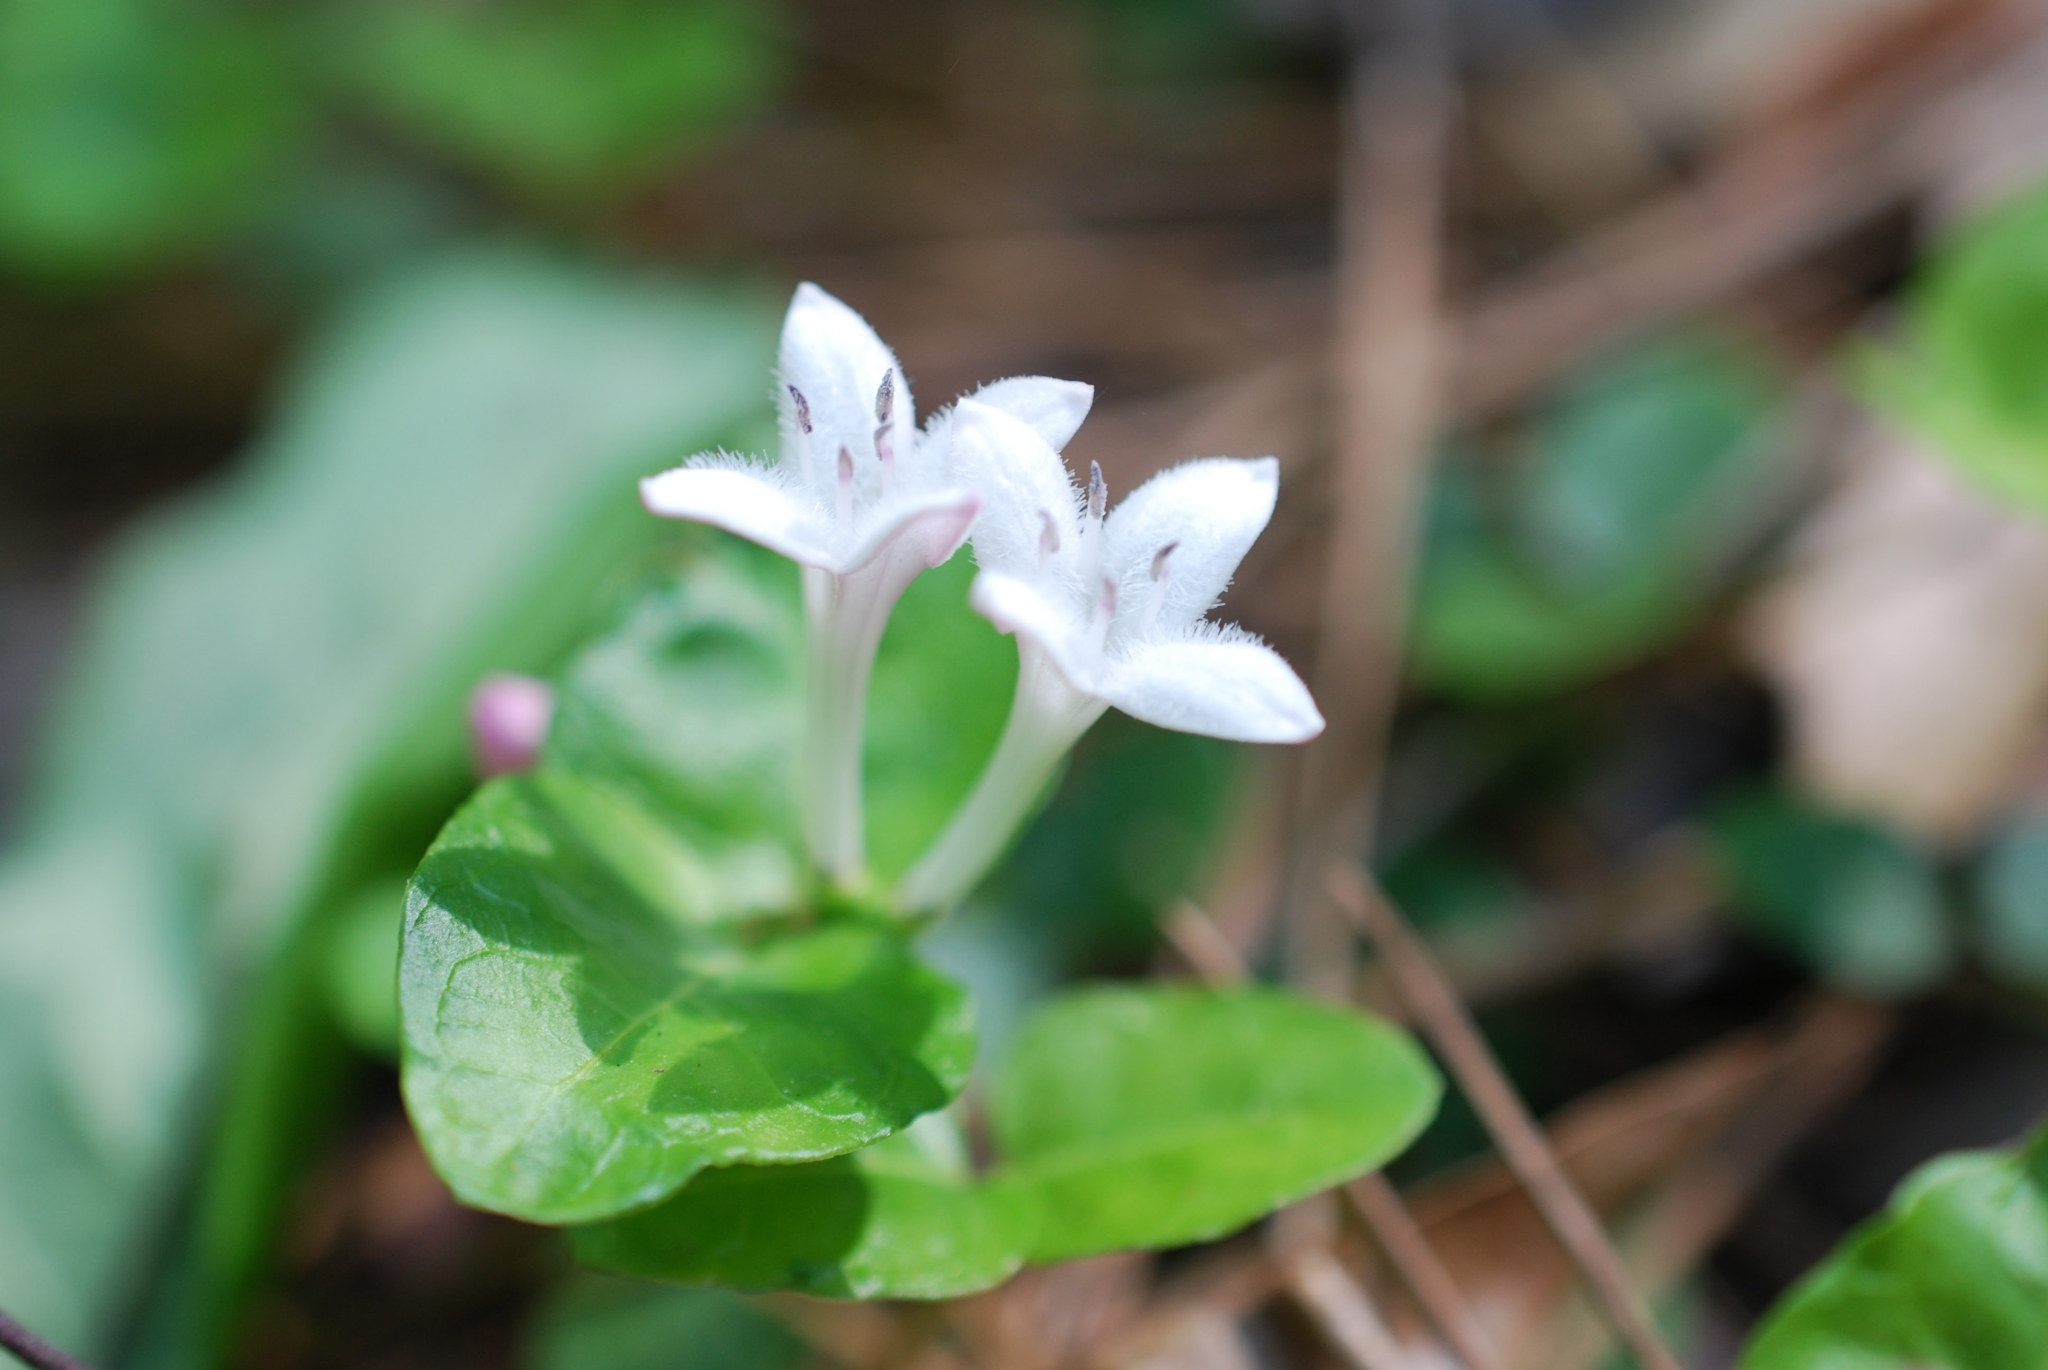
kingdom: Plantae
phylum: Tracheophyta
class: Magnoliopsida
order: Gentianales
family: Rubiaceae
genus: Mitchella
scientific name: Mitchella repens
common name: Partridge-berry
